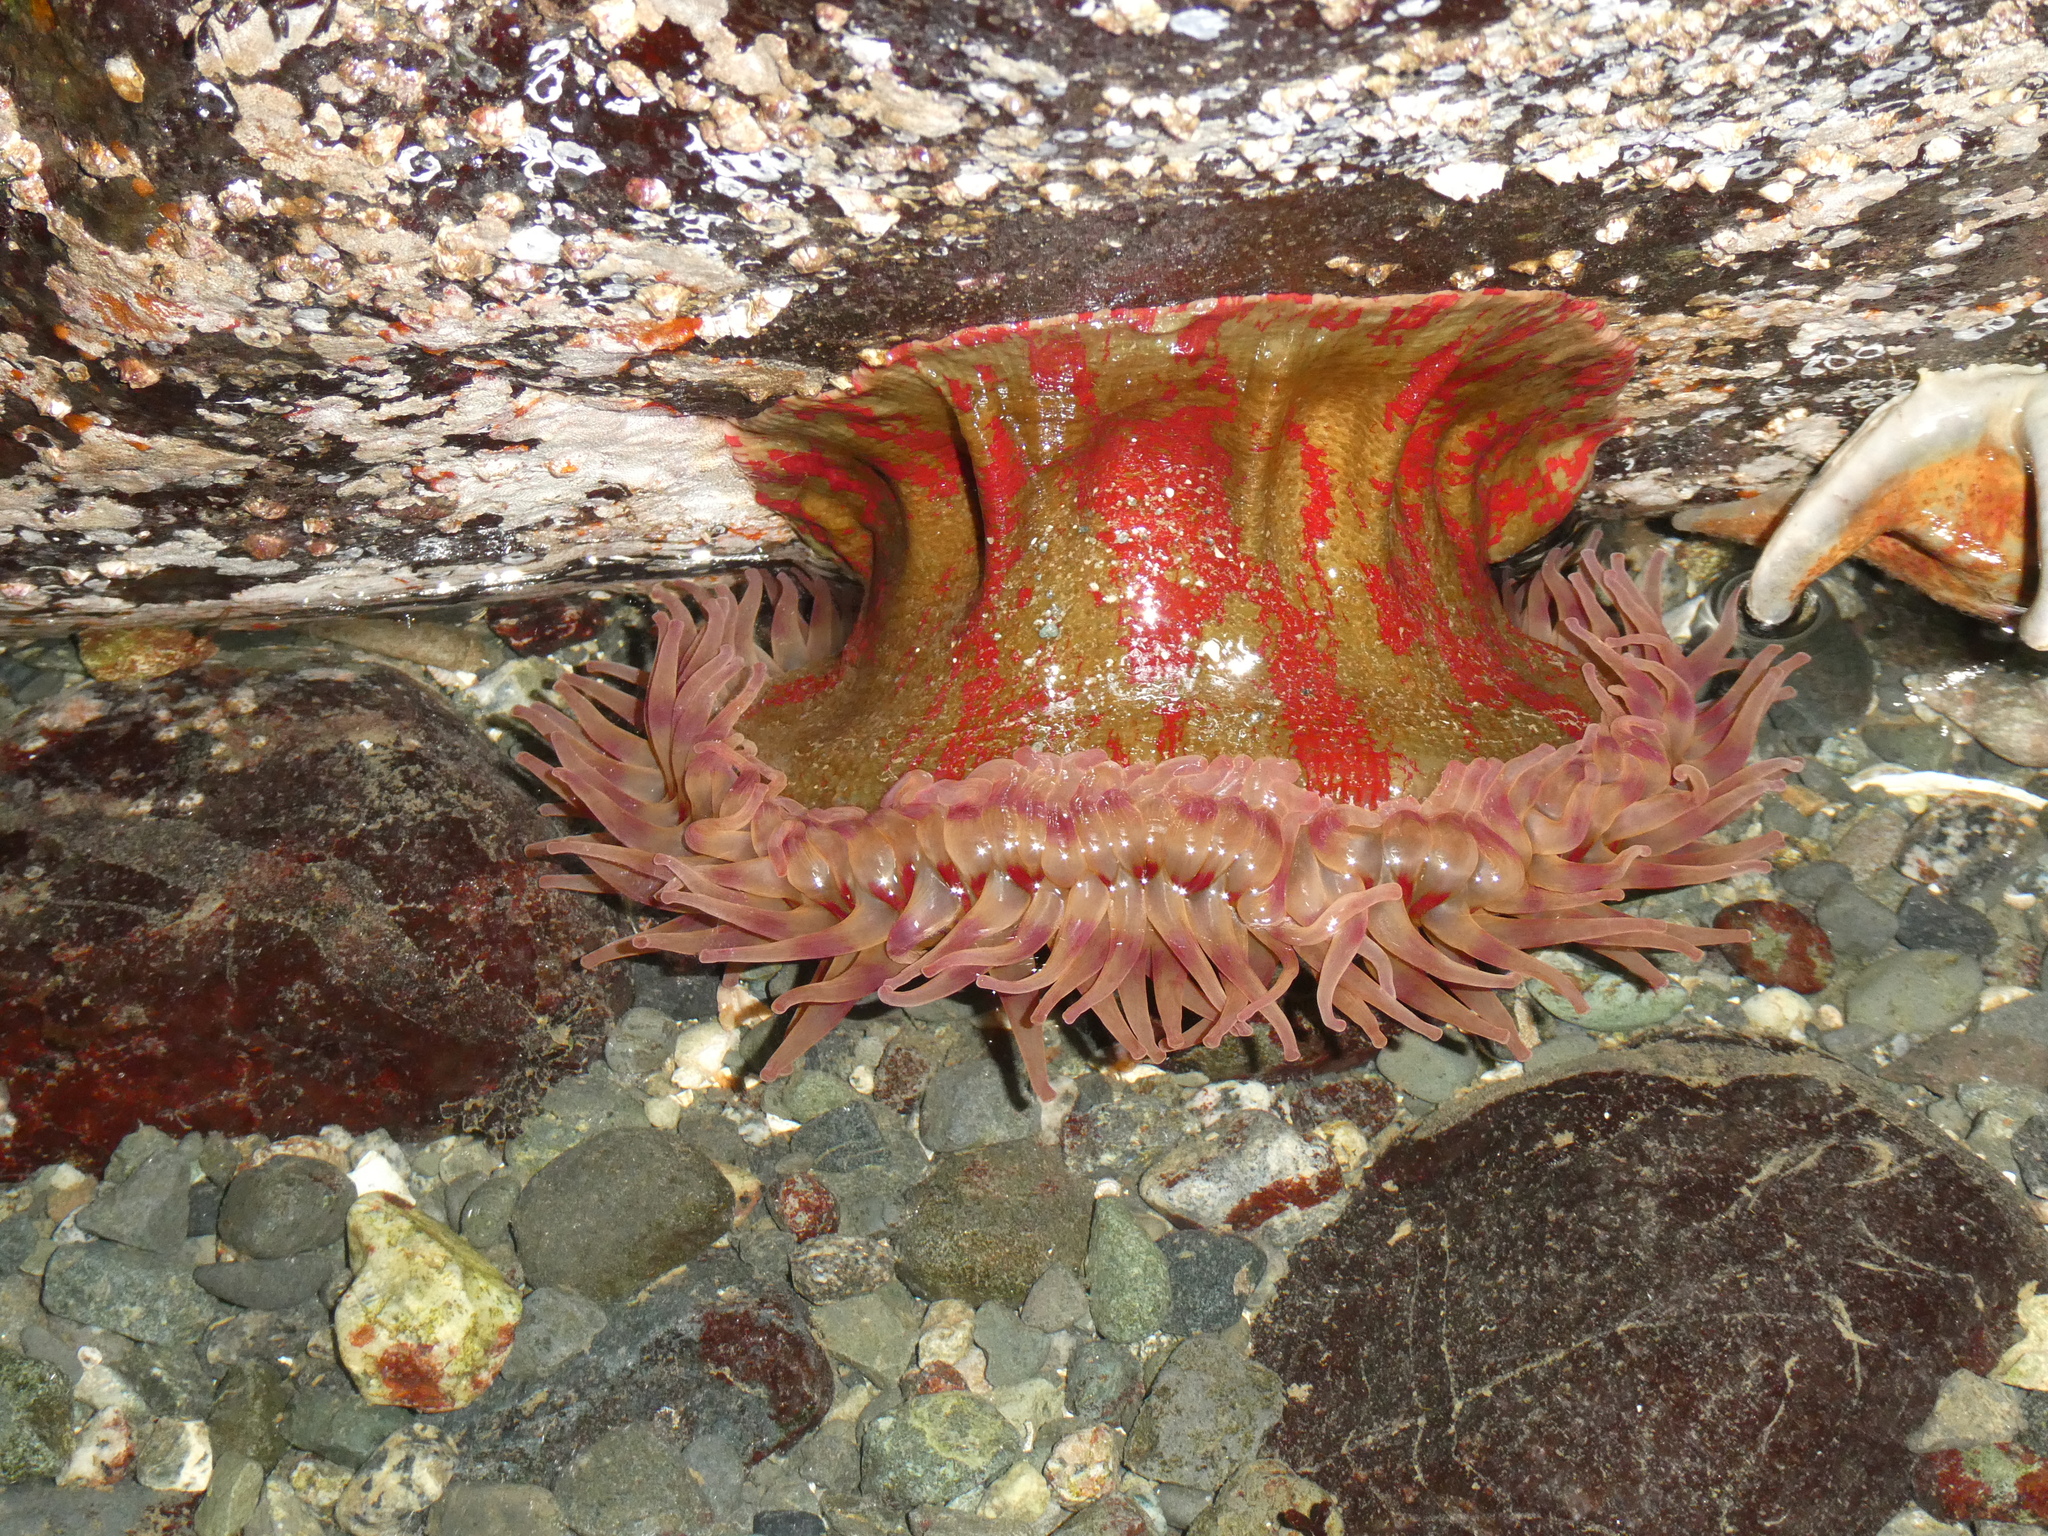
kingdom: Animalia
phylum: Cnidaria
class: Anthozoa
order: Actiniaria
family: Actiniidae
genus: Urticina
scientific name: Urticina grebelnyi
